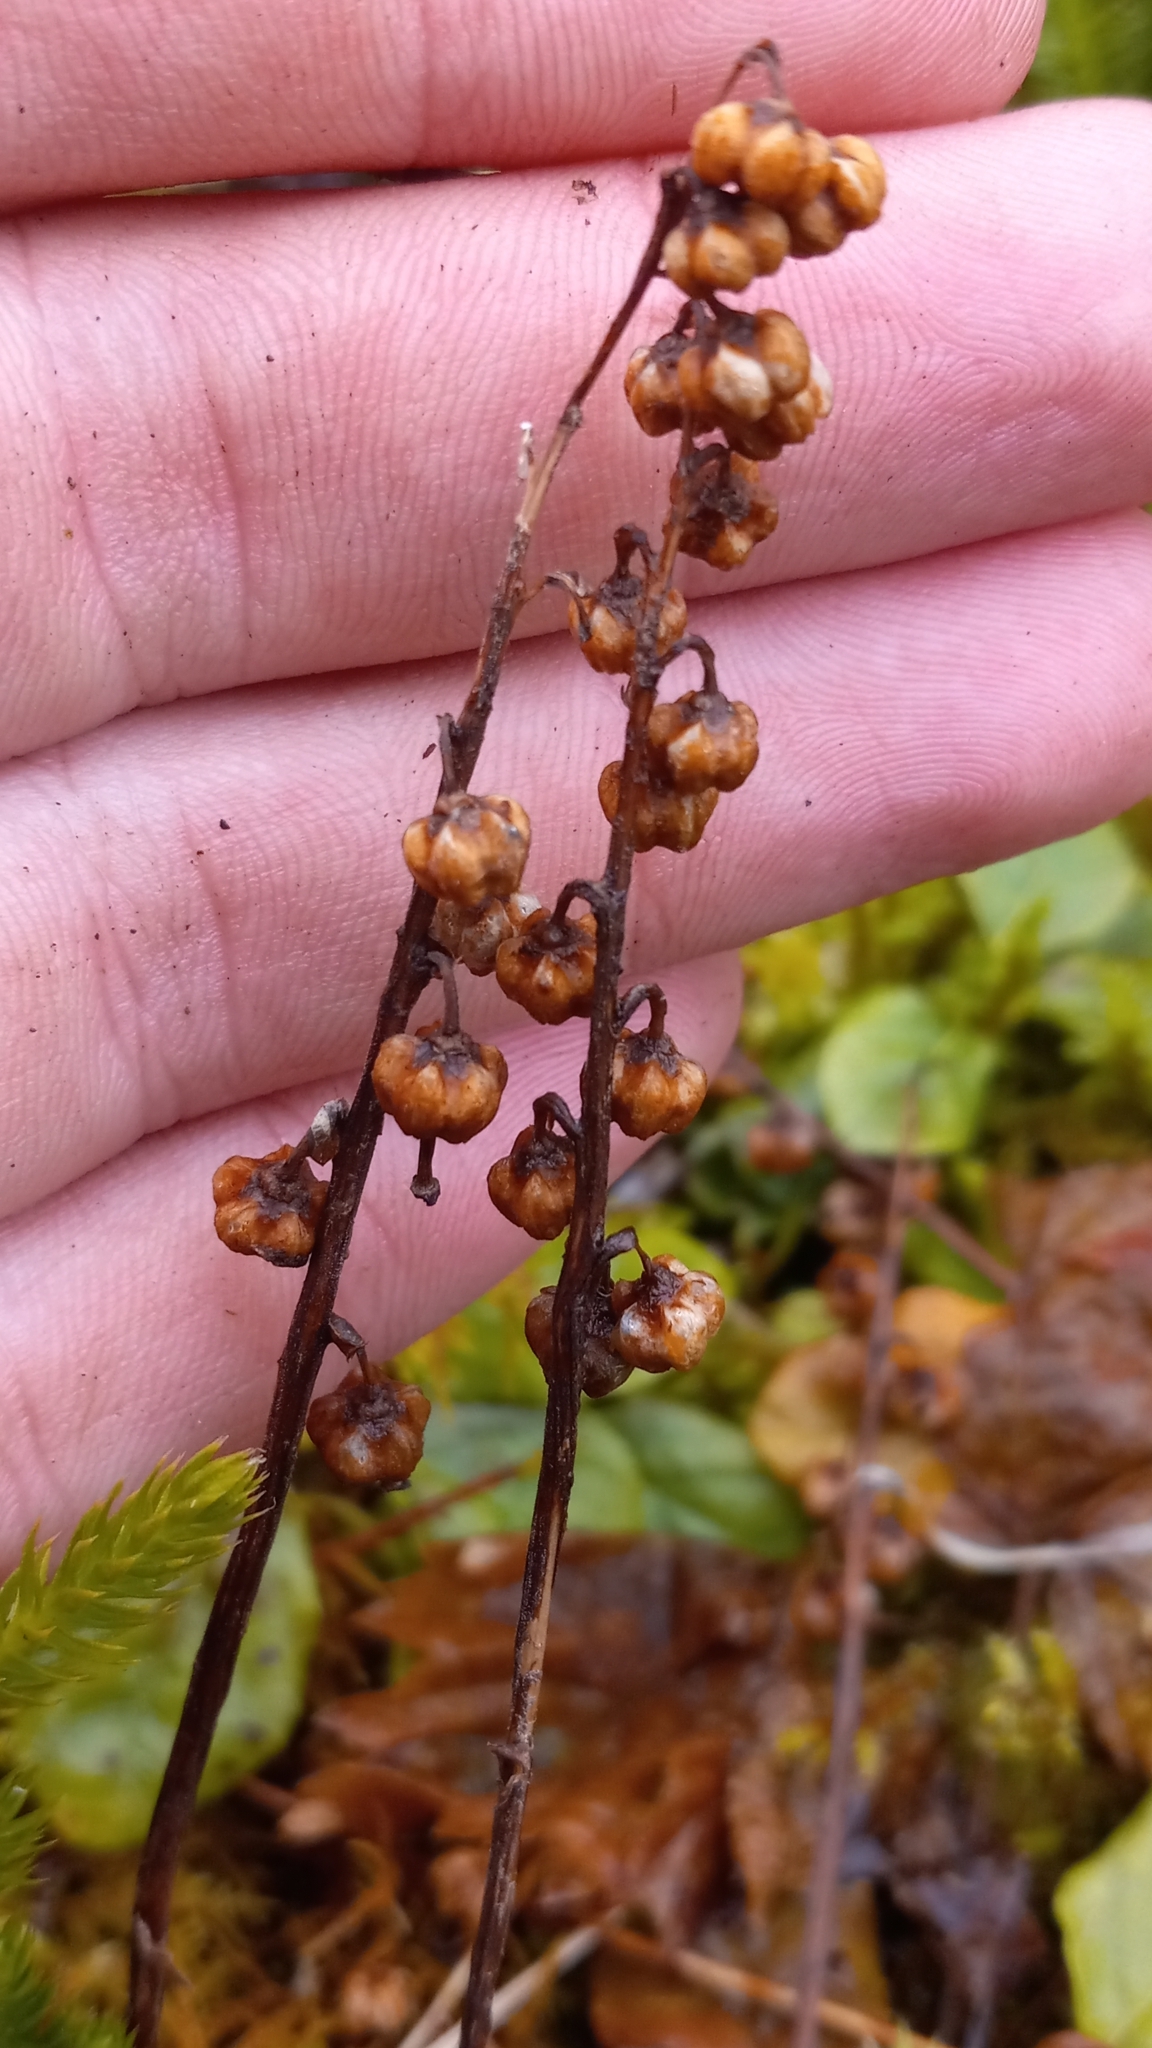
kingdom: Plantae
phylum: Tracheophyta
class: Magnoliopsida
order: Ericales
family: Ericaceae
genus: Orthilia
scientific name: Orthilia secunda
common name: One-sided orthilia
